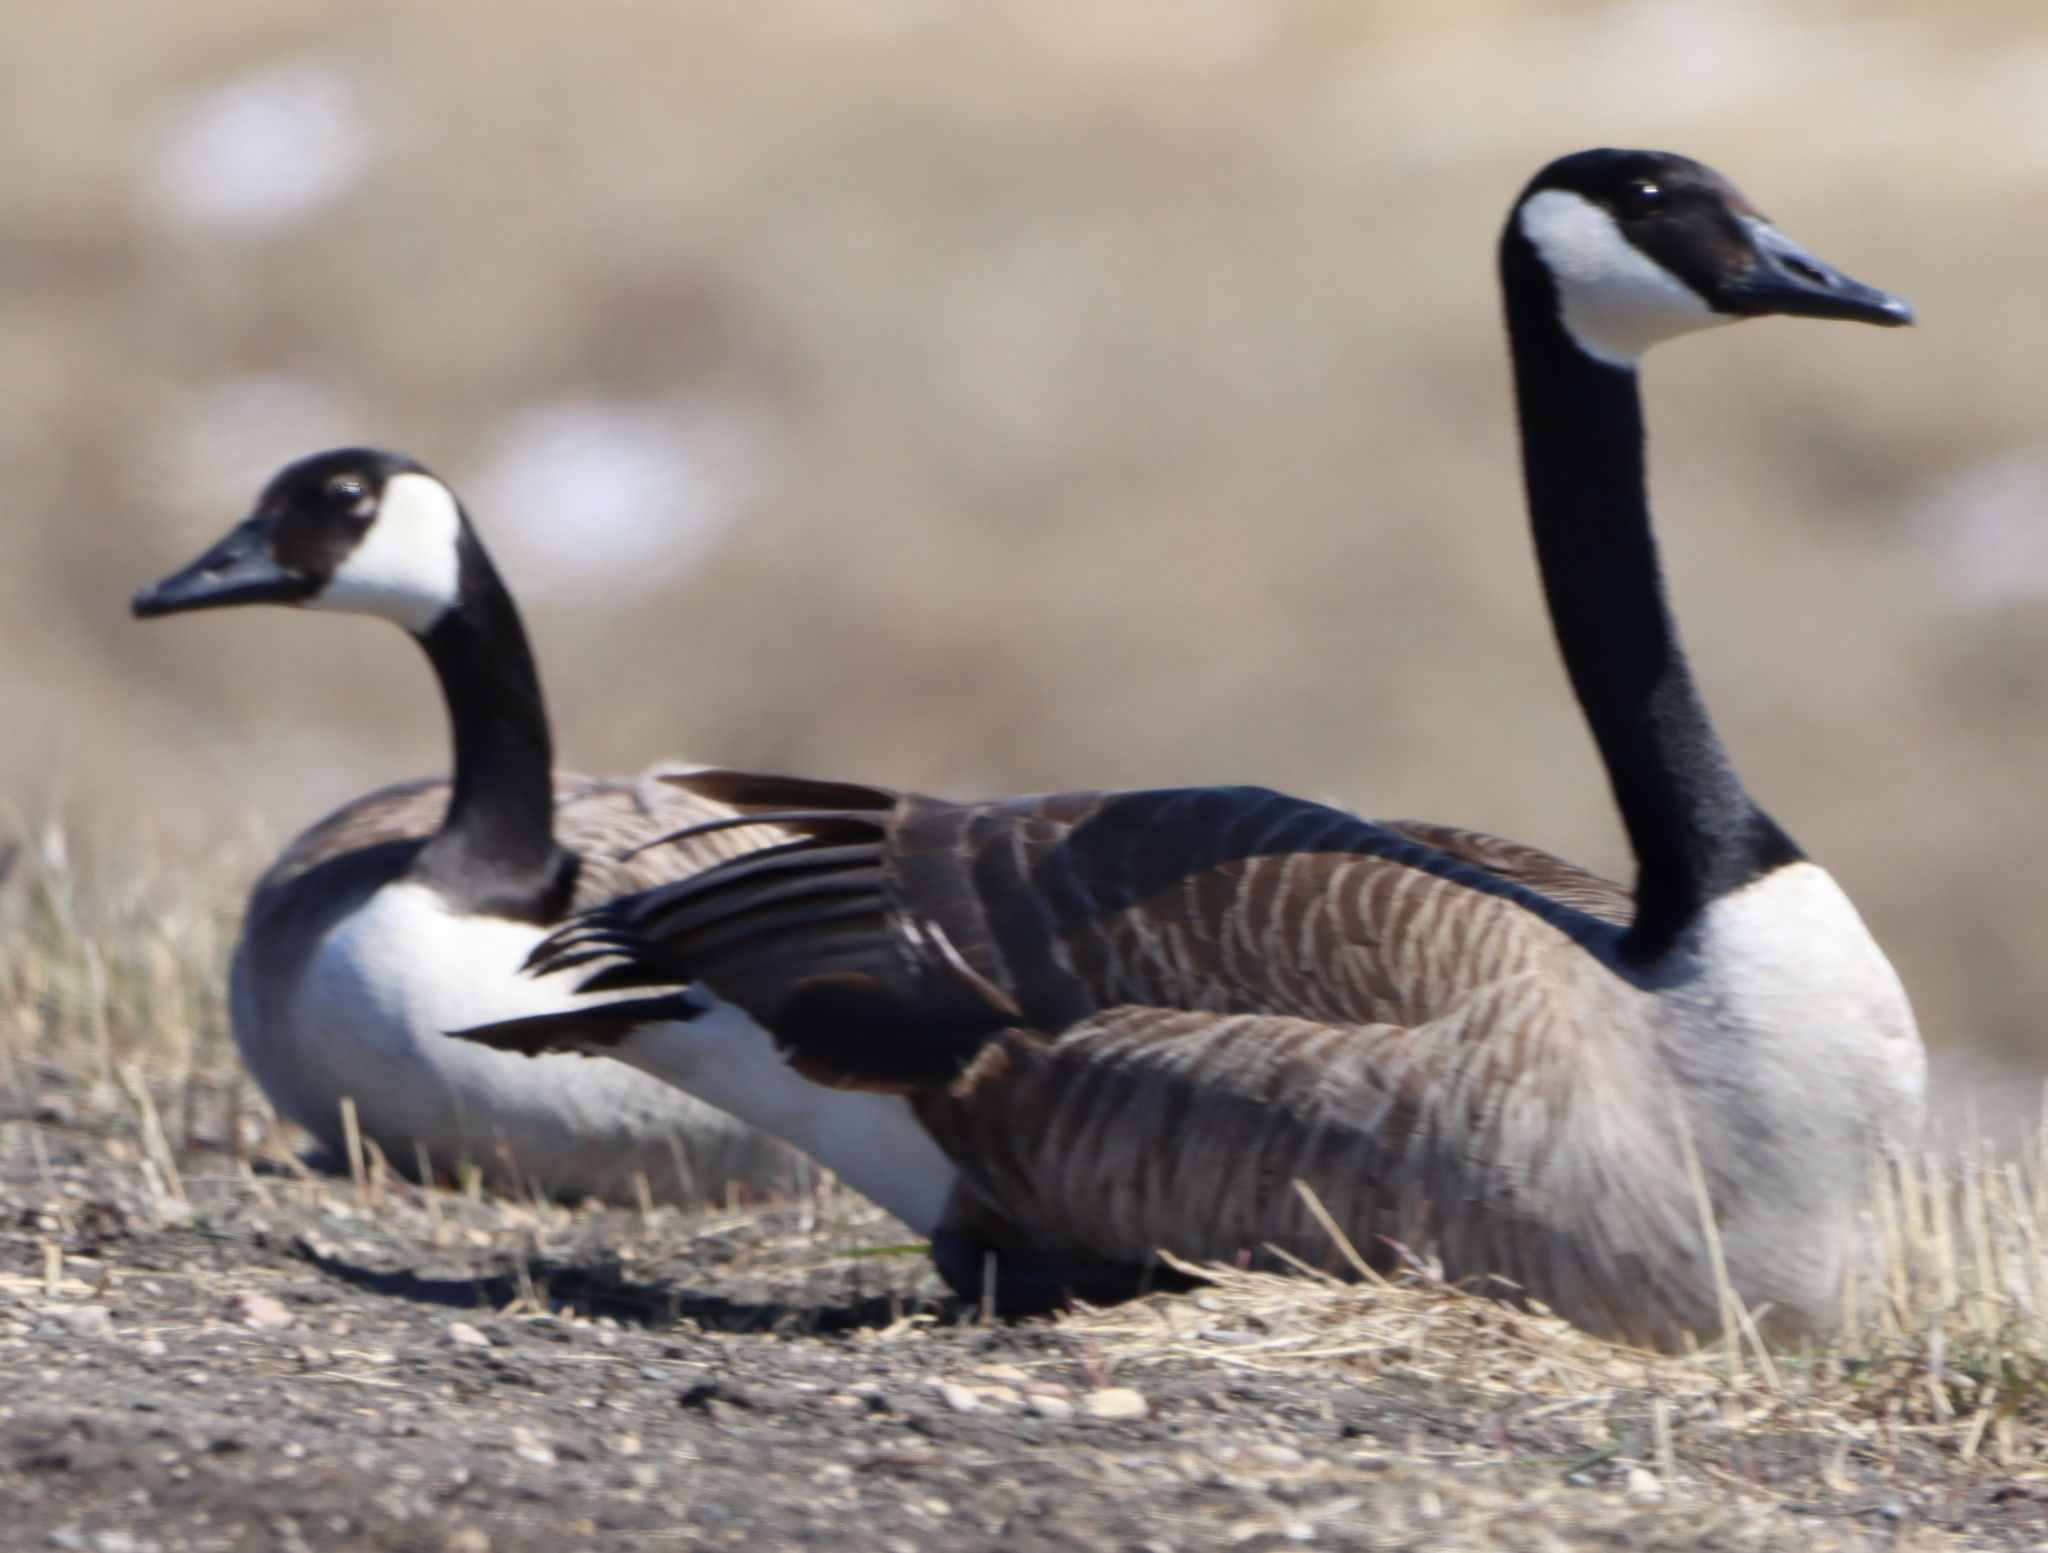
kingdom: Animalia
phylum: Chordata
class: Aves
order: Anseriformes
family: Anatidae
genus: Branta
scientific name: Branta canadensis
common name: Canada goose
